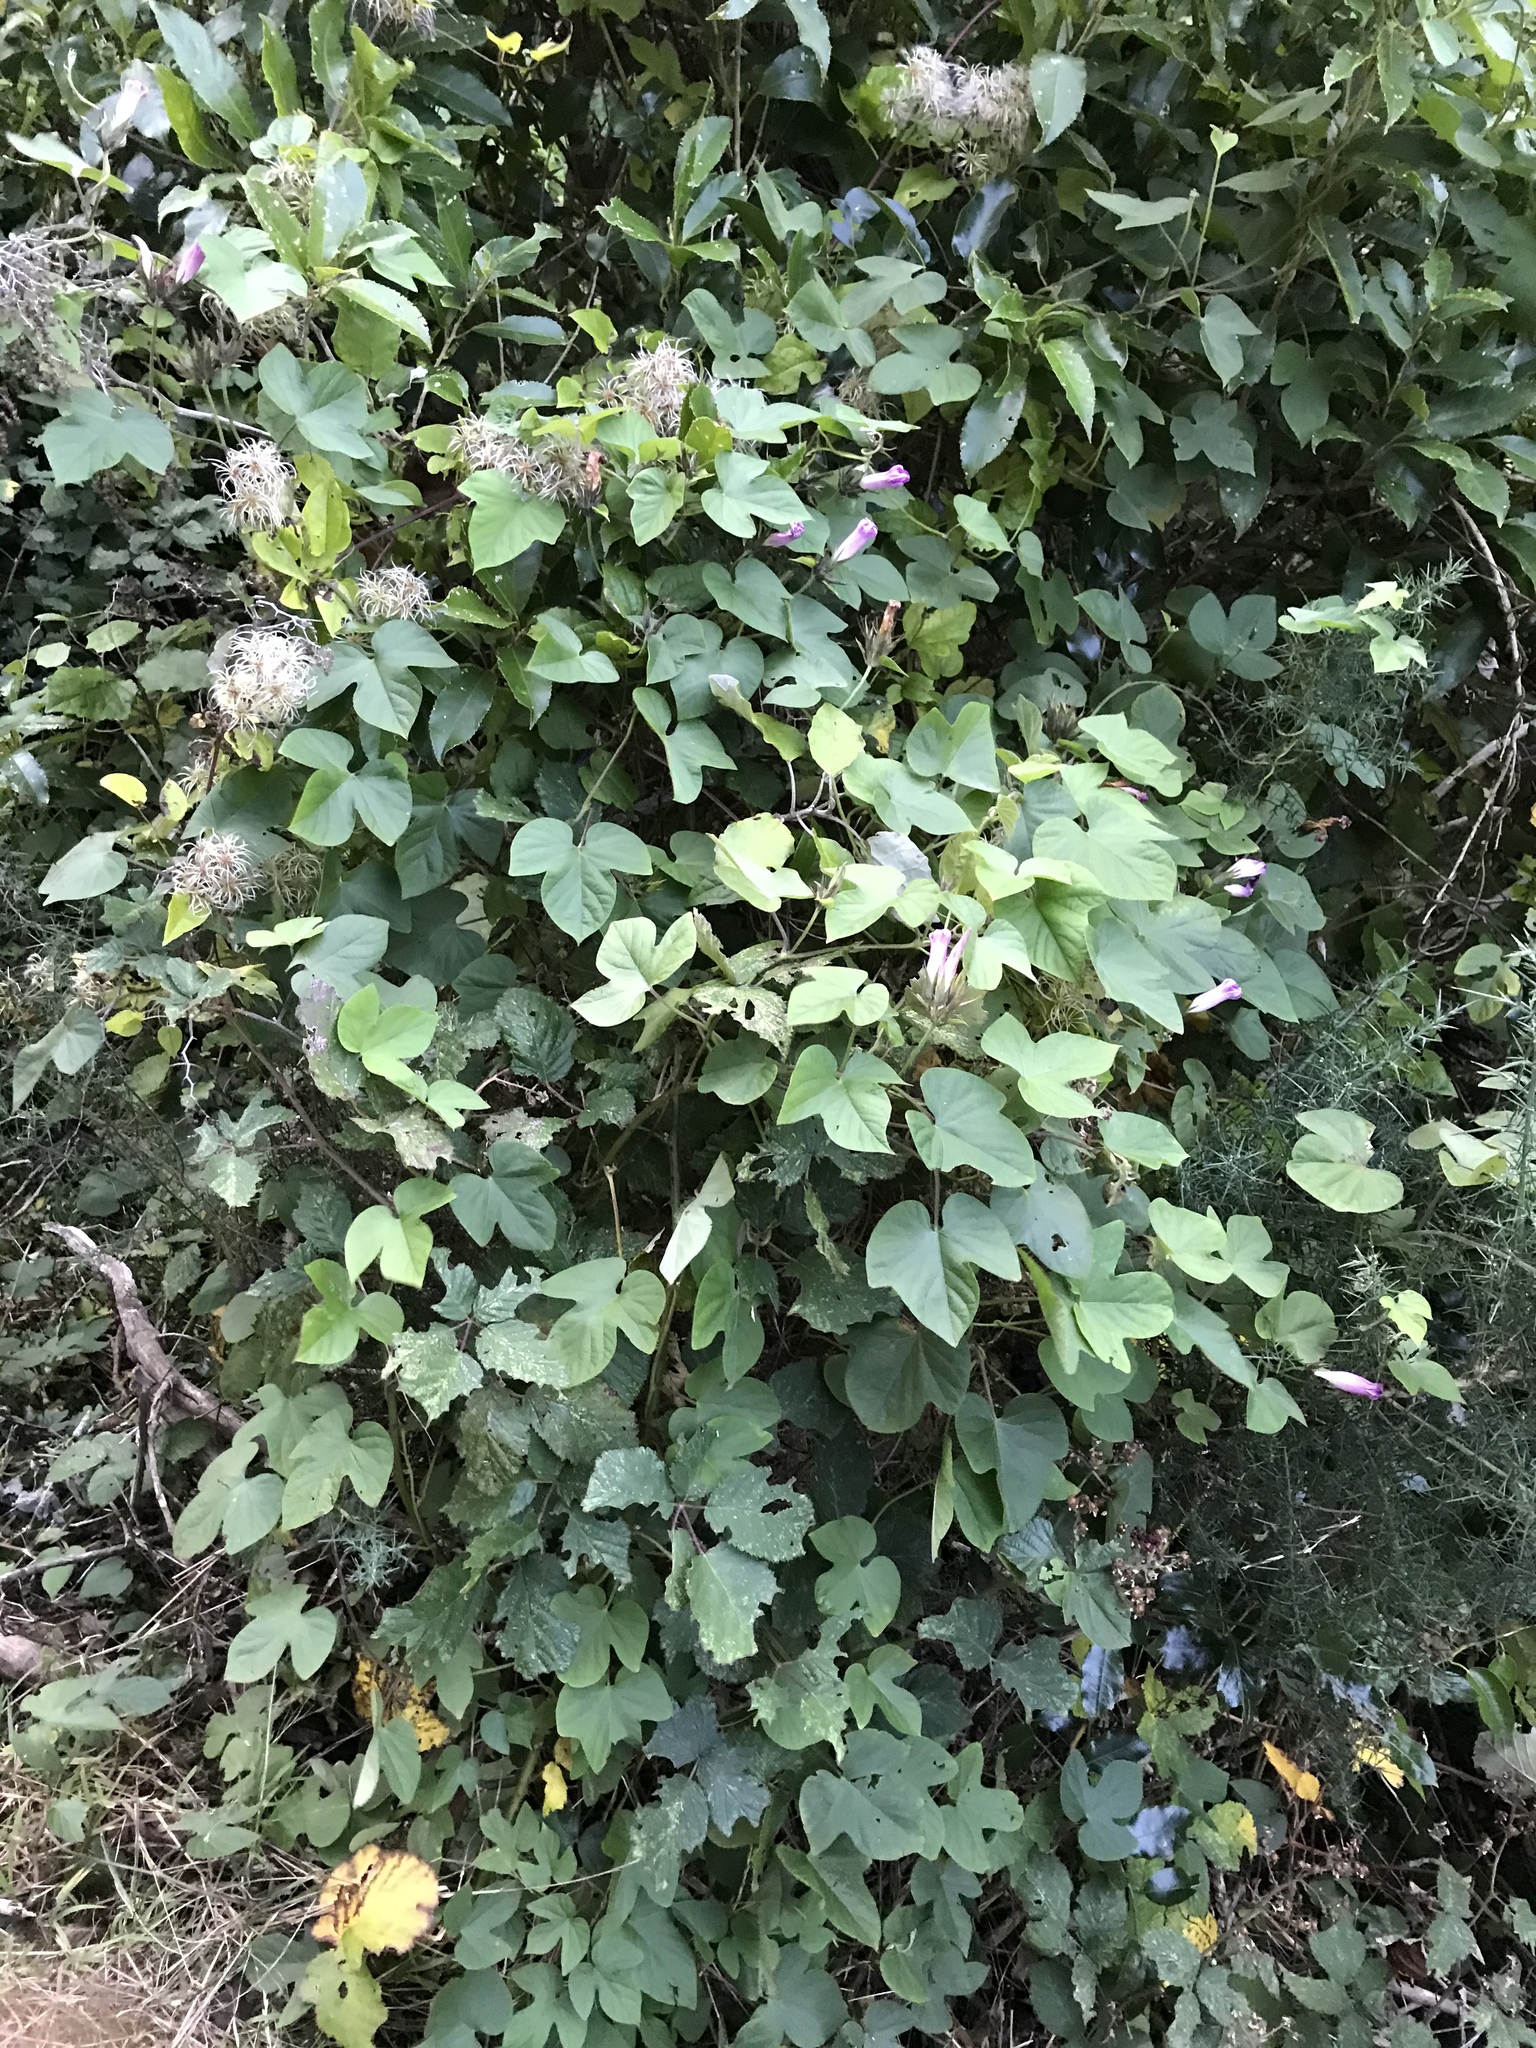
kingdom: Plantae
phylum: Tracheophyta
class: Magnoliopsida
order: Solanales
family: Convolvulaceae
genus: Ipomoea
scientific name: Ipomoea indica
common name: Blue dawnflower
